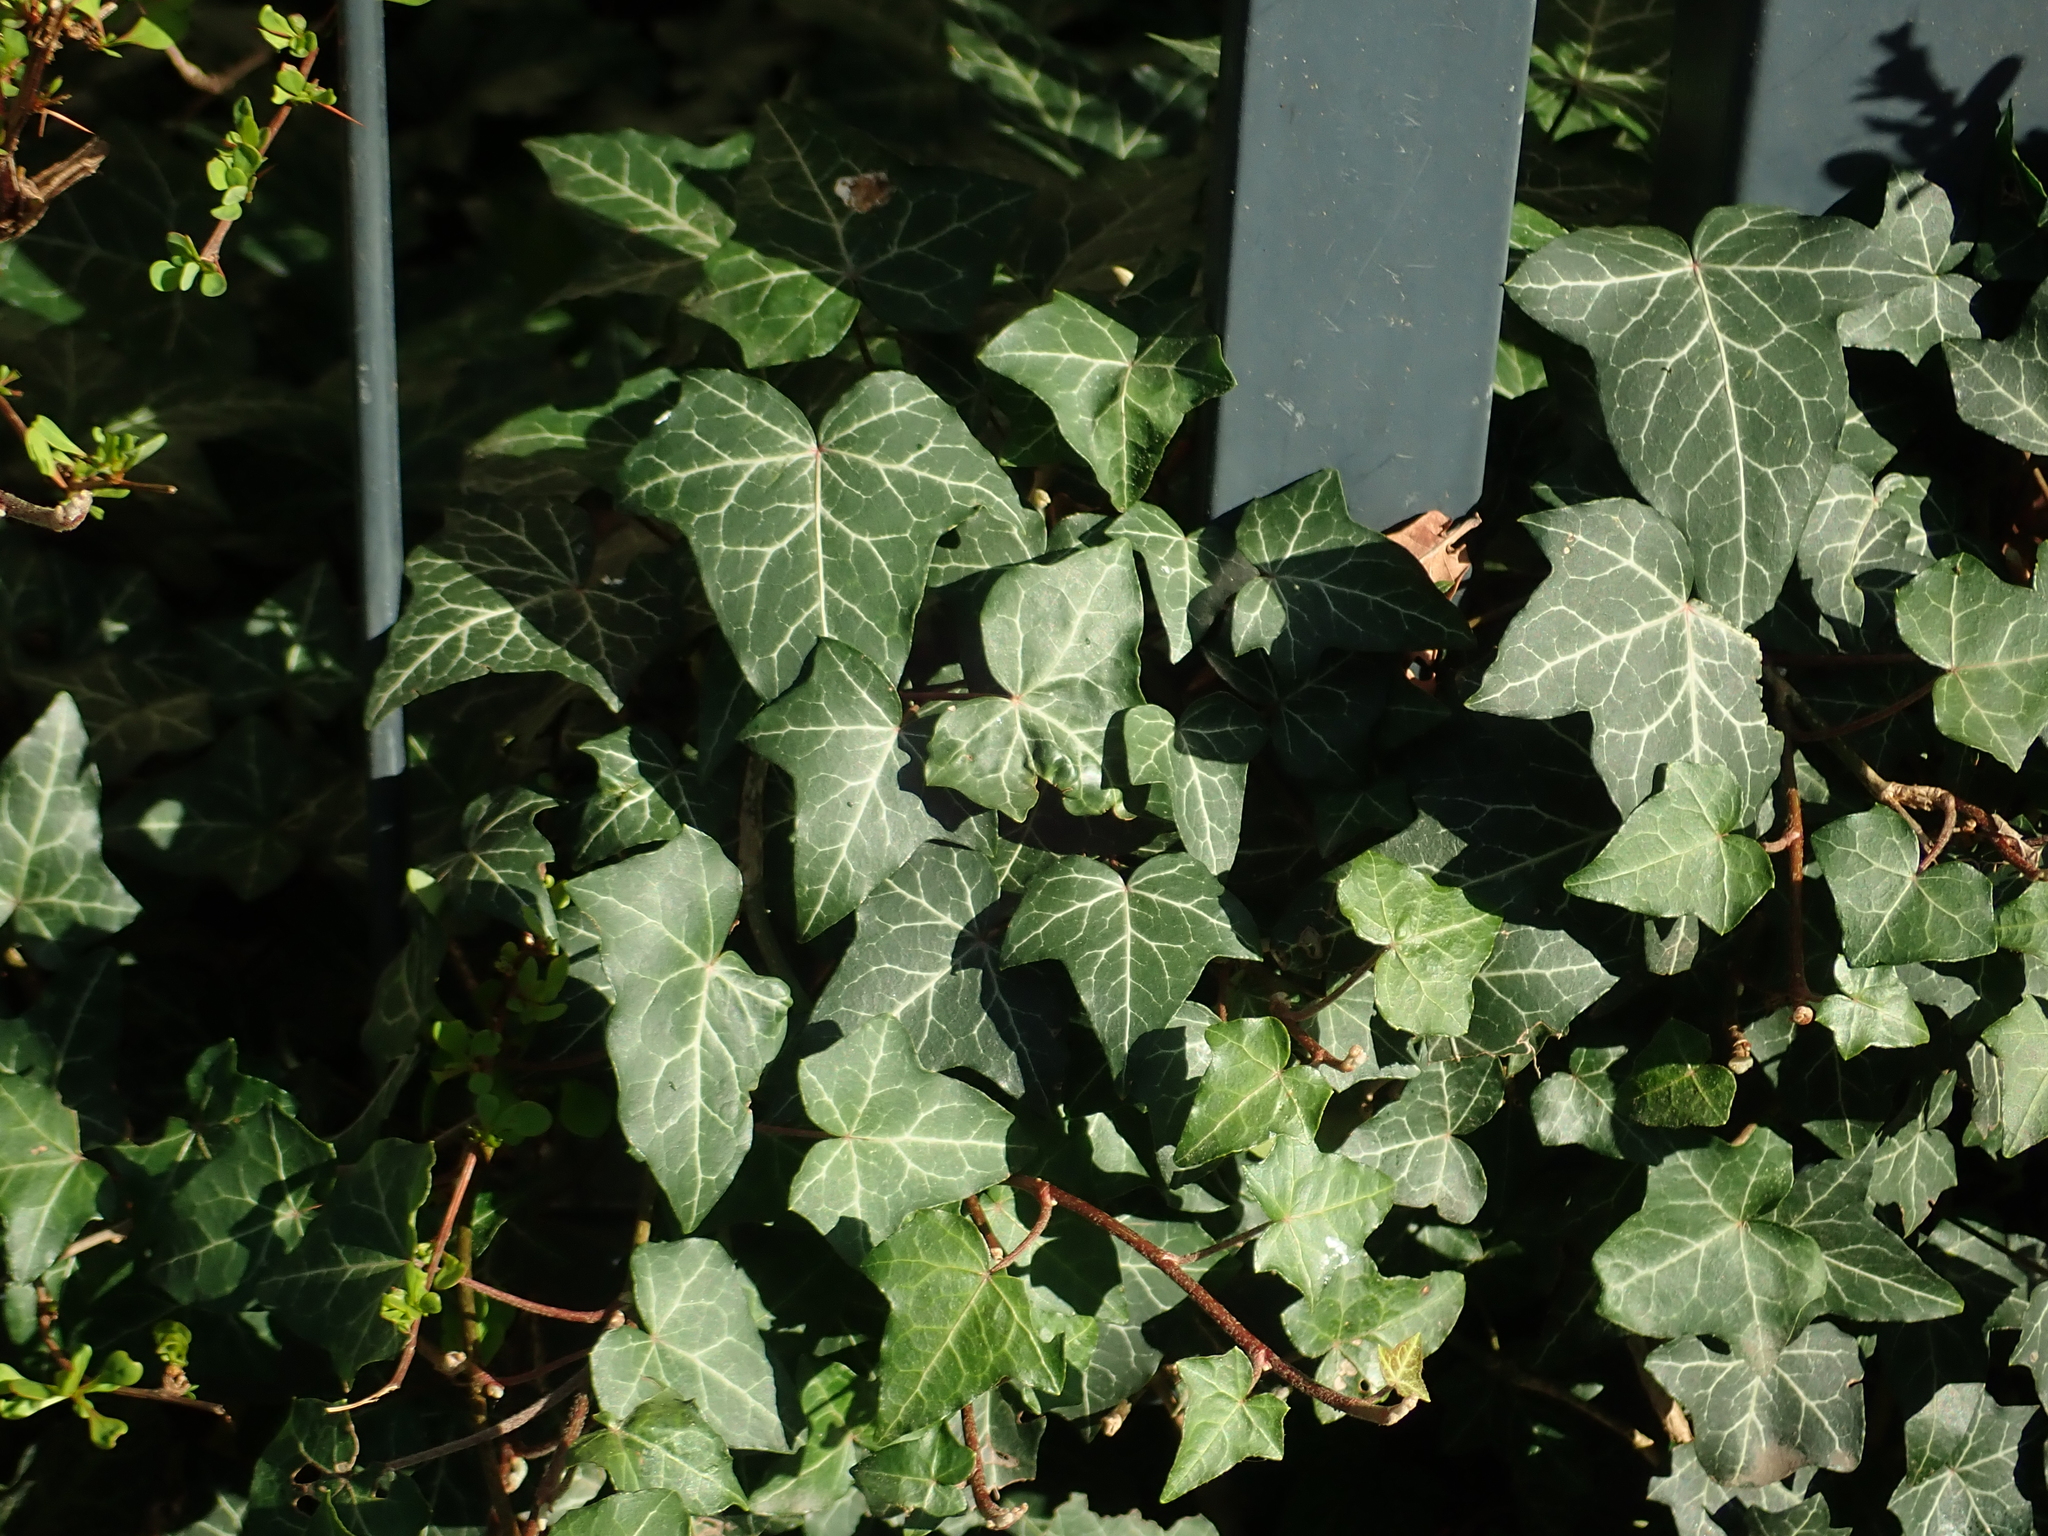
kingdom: Plantae
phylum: Tracheophyta
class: Magnoliopsida
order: Apiales
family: Araliaceae
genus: Hedera
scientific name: Hedera helix
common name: Ivy
